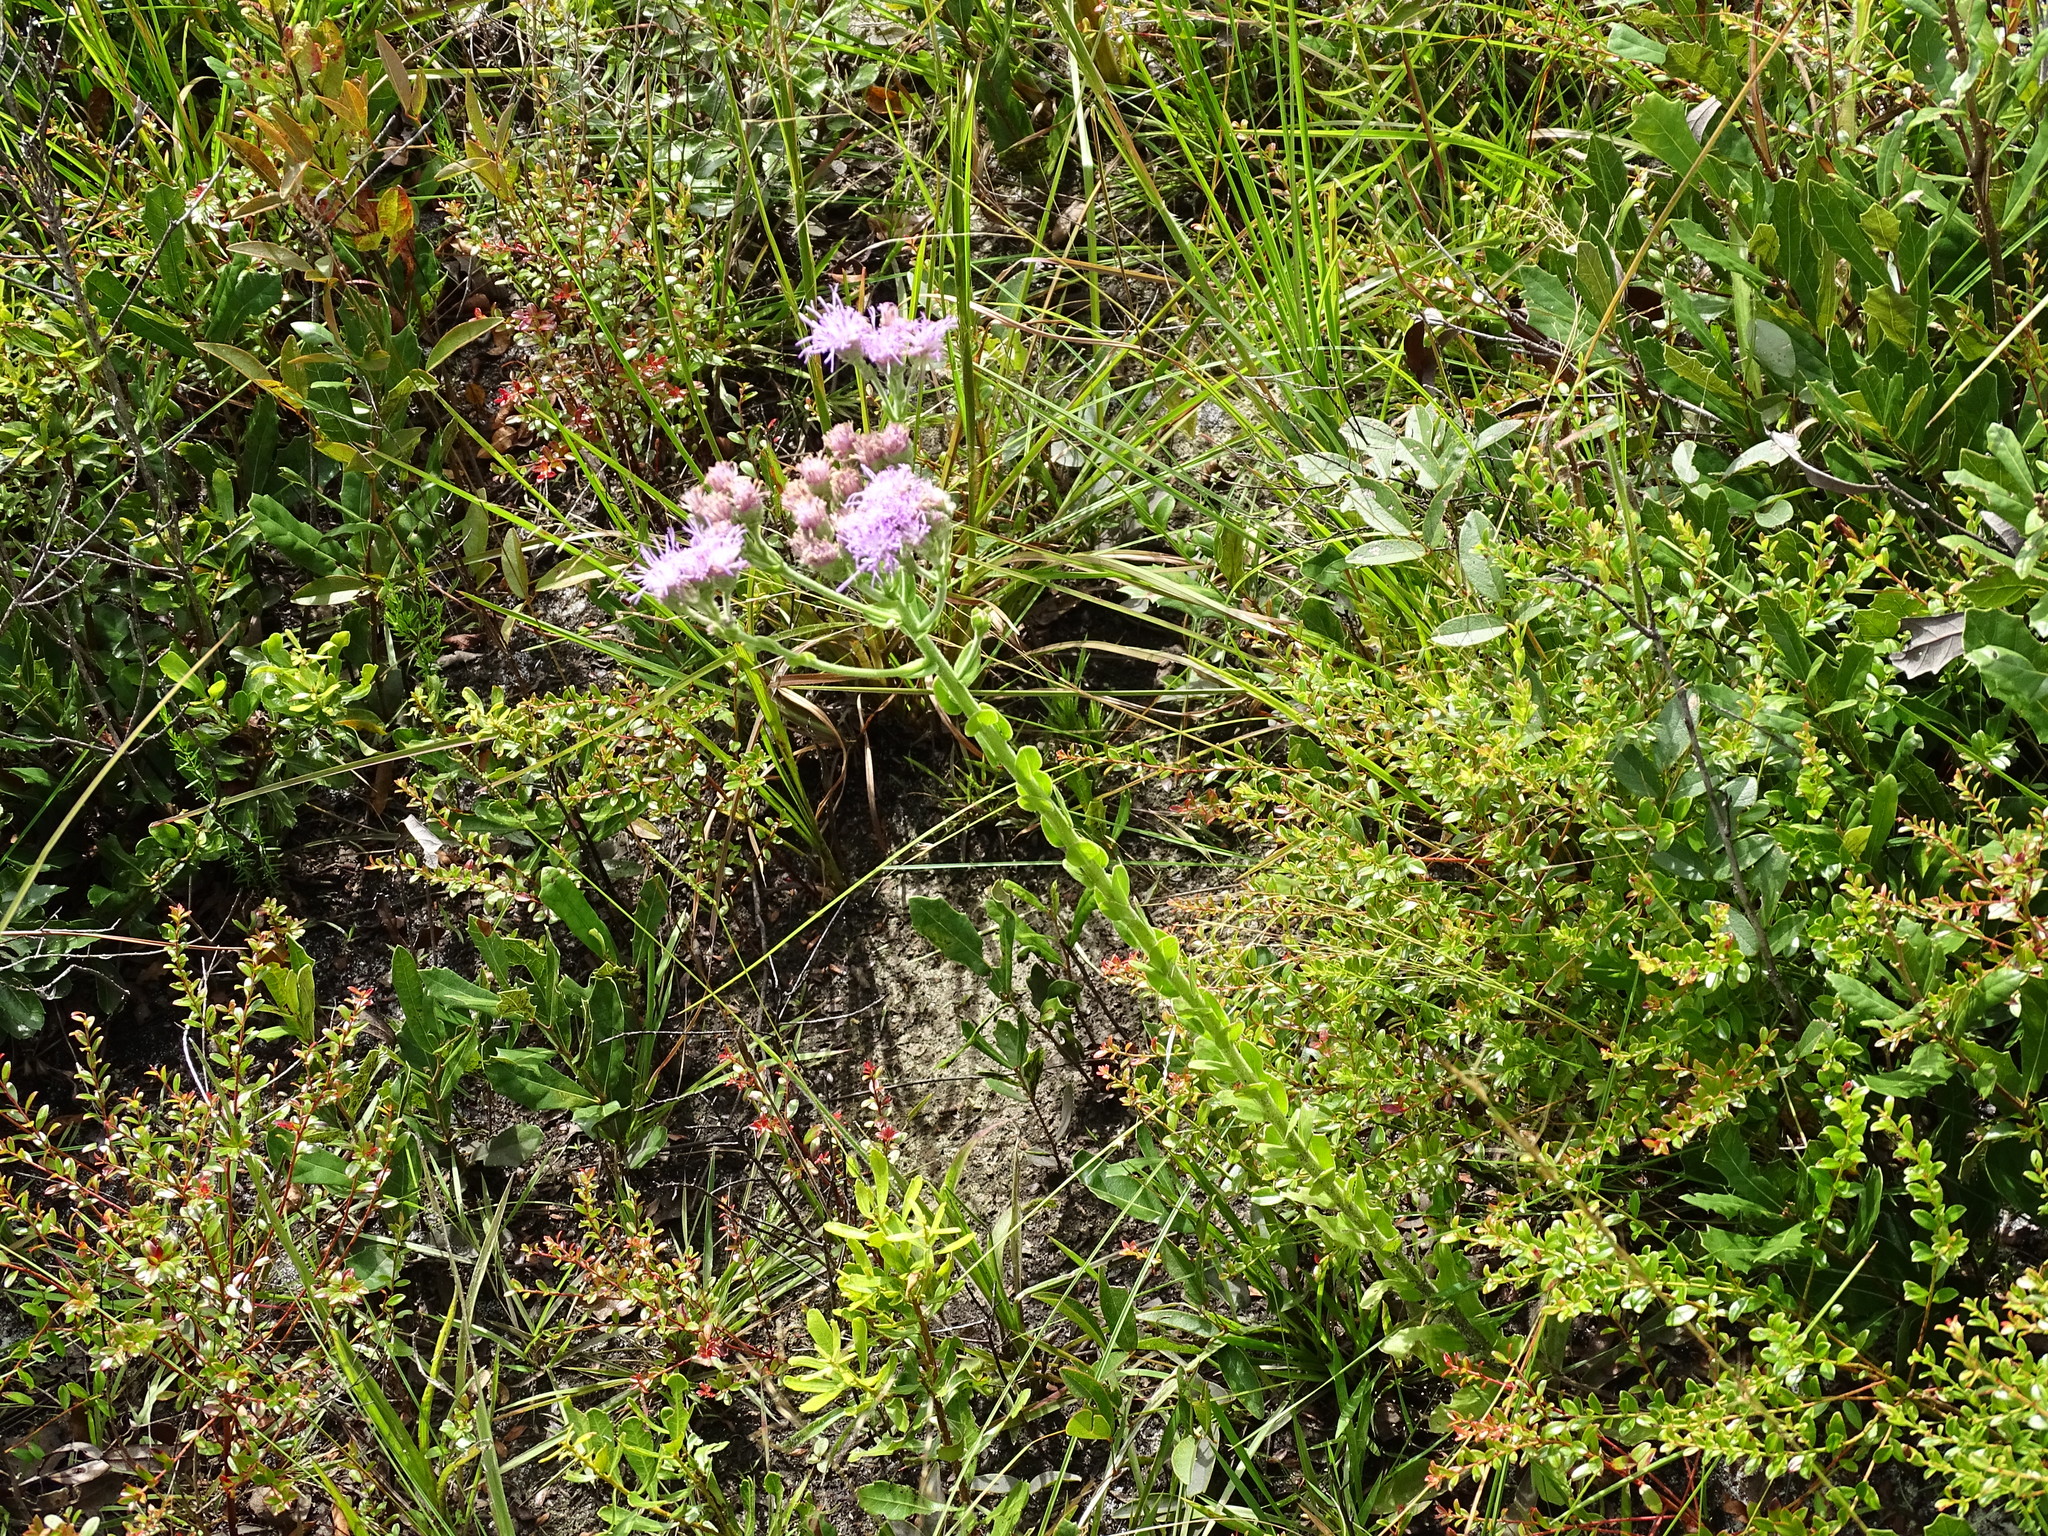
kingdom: Plantae
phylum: Tracheophyta
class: Magnoliopsida
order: Asterales
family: Asteraceae
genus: Carphephorus
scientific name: Carphephorus corymbosus
